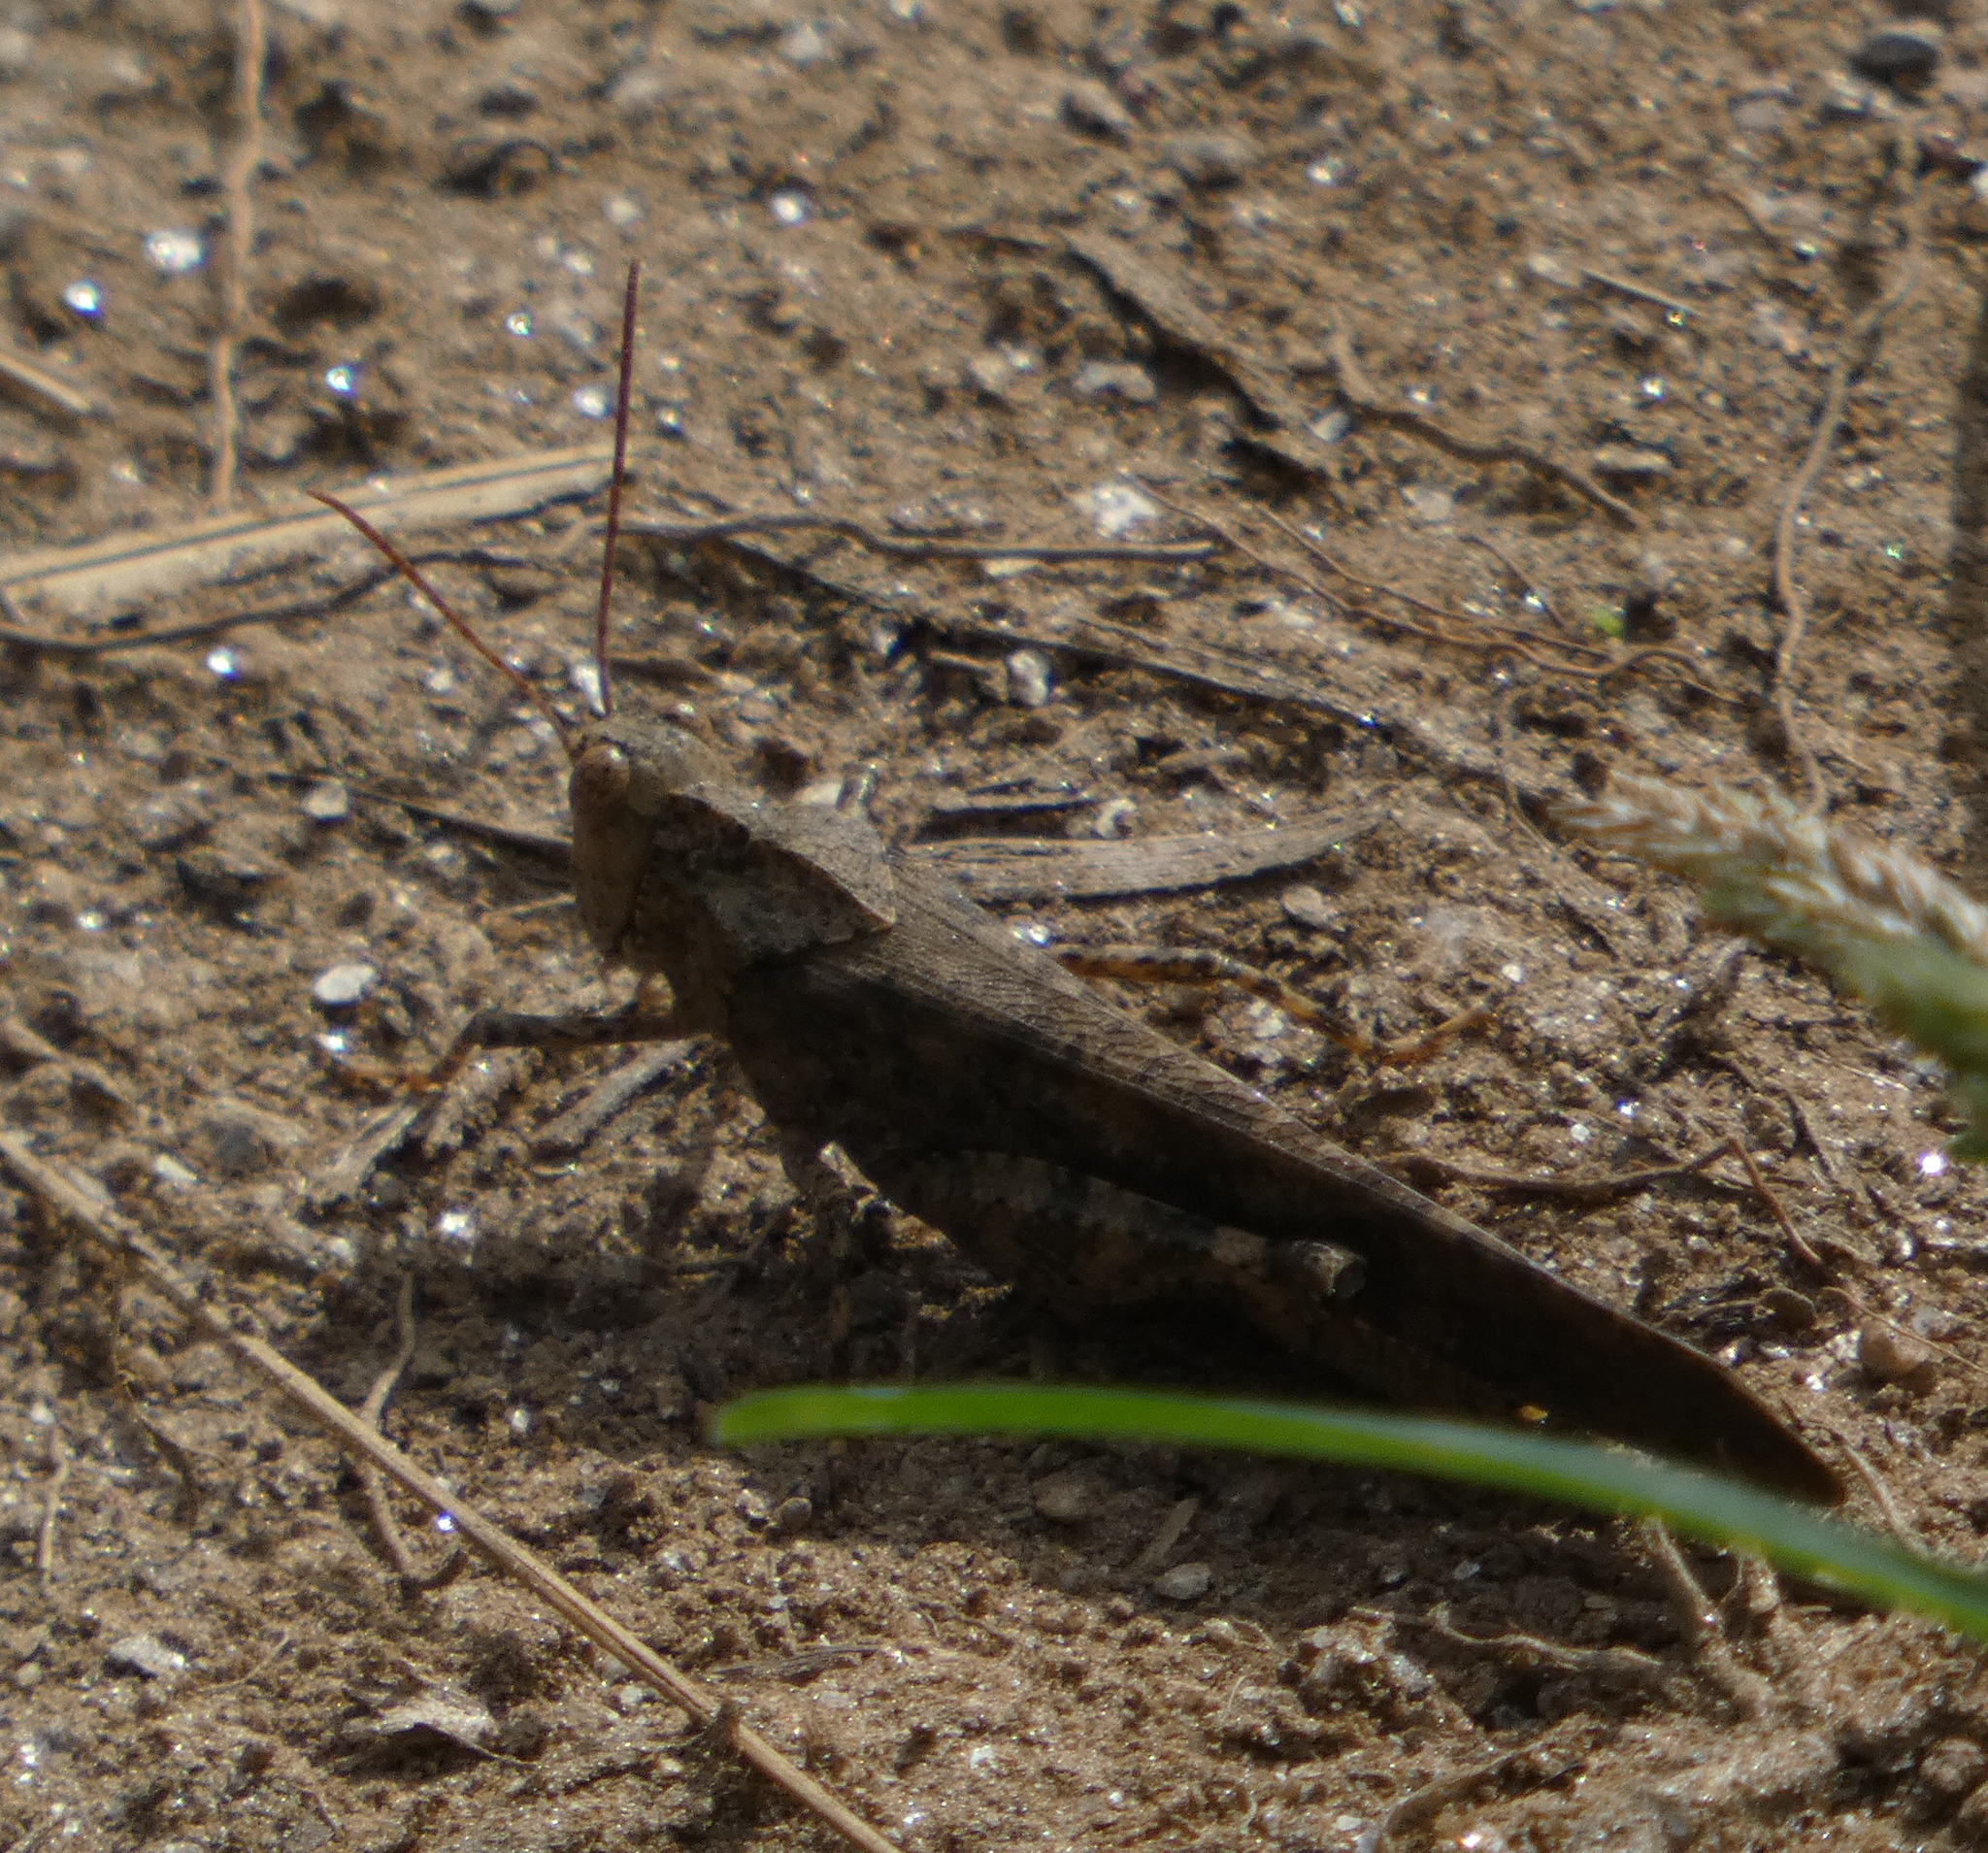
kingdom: Animalia
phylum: Arthropoda
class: Insecta
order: Orthoptera
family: Acrididae
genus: Dissosteira
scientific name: Dissosteira carolina
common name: Carolina grasshopper
